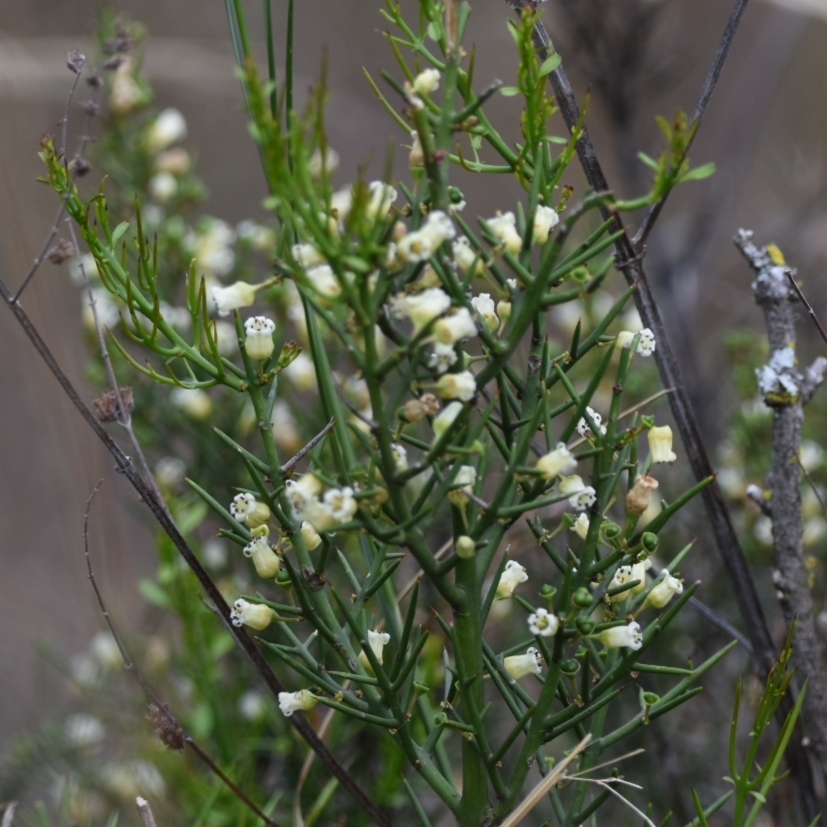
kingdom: Plantae
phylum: Tracheophyta
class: Magnoliopsida
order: Rosales
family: Rhamnaceae
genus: Colletia
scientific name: Colletia spinosissima
